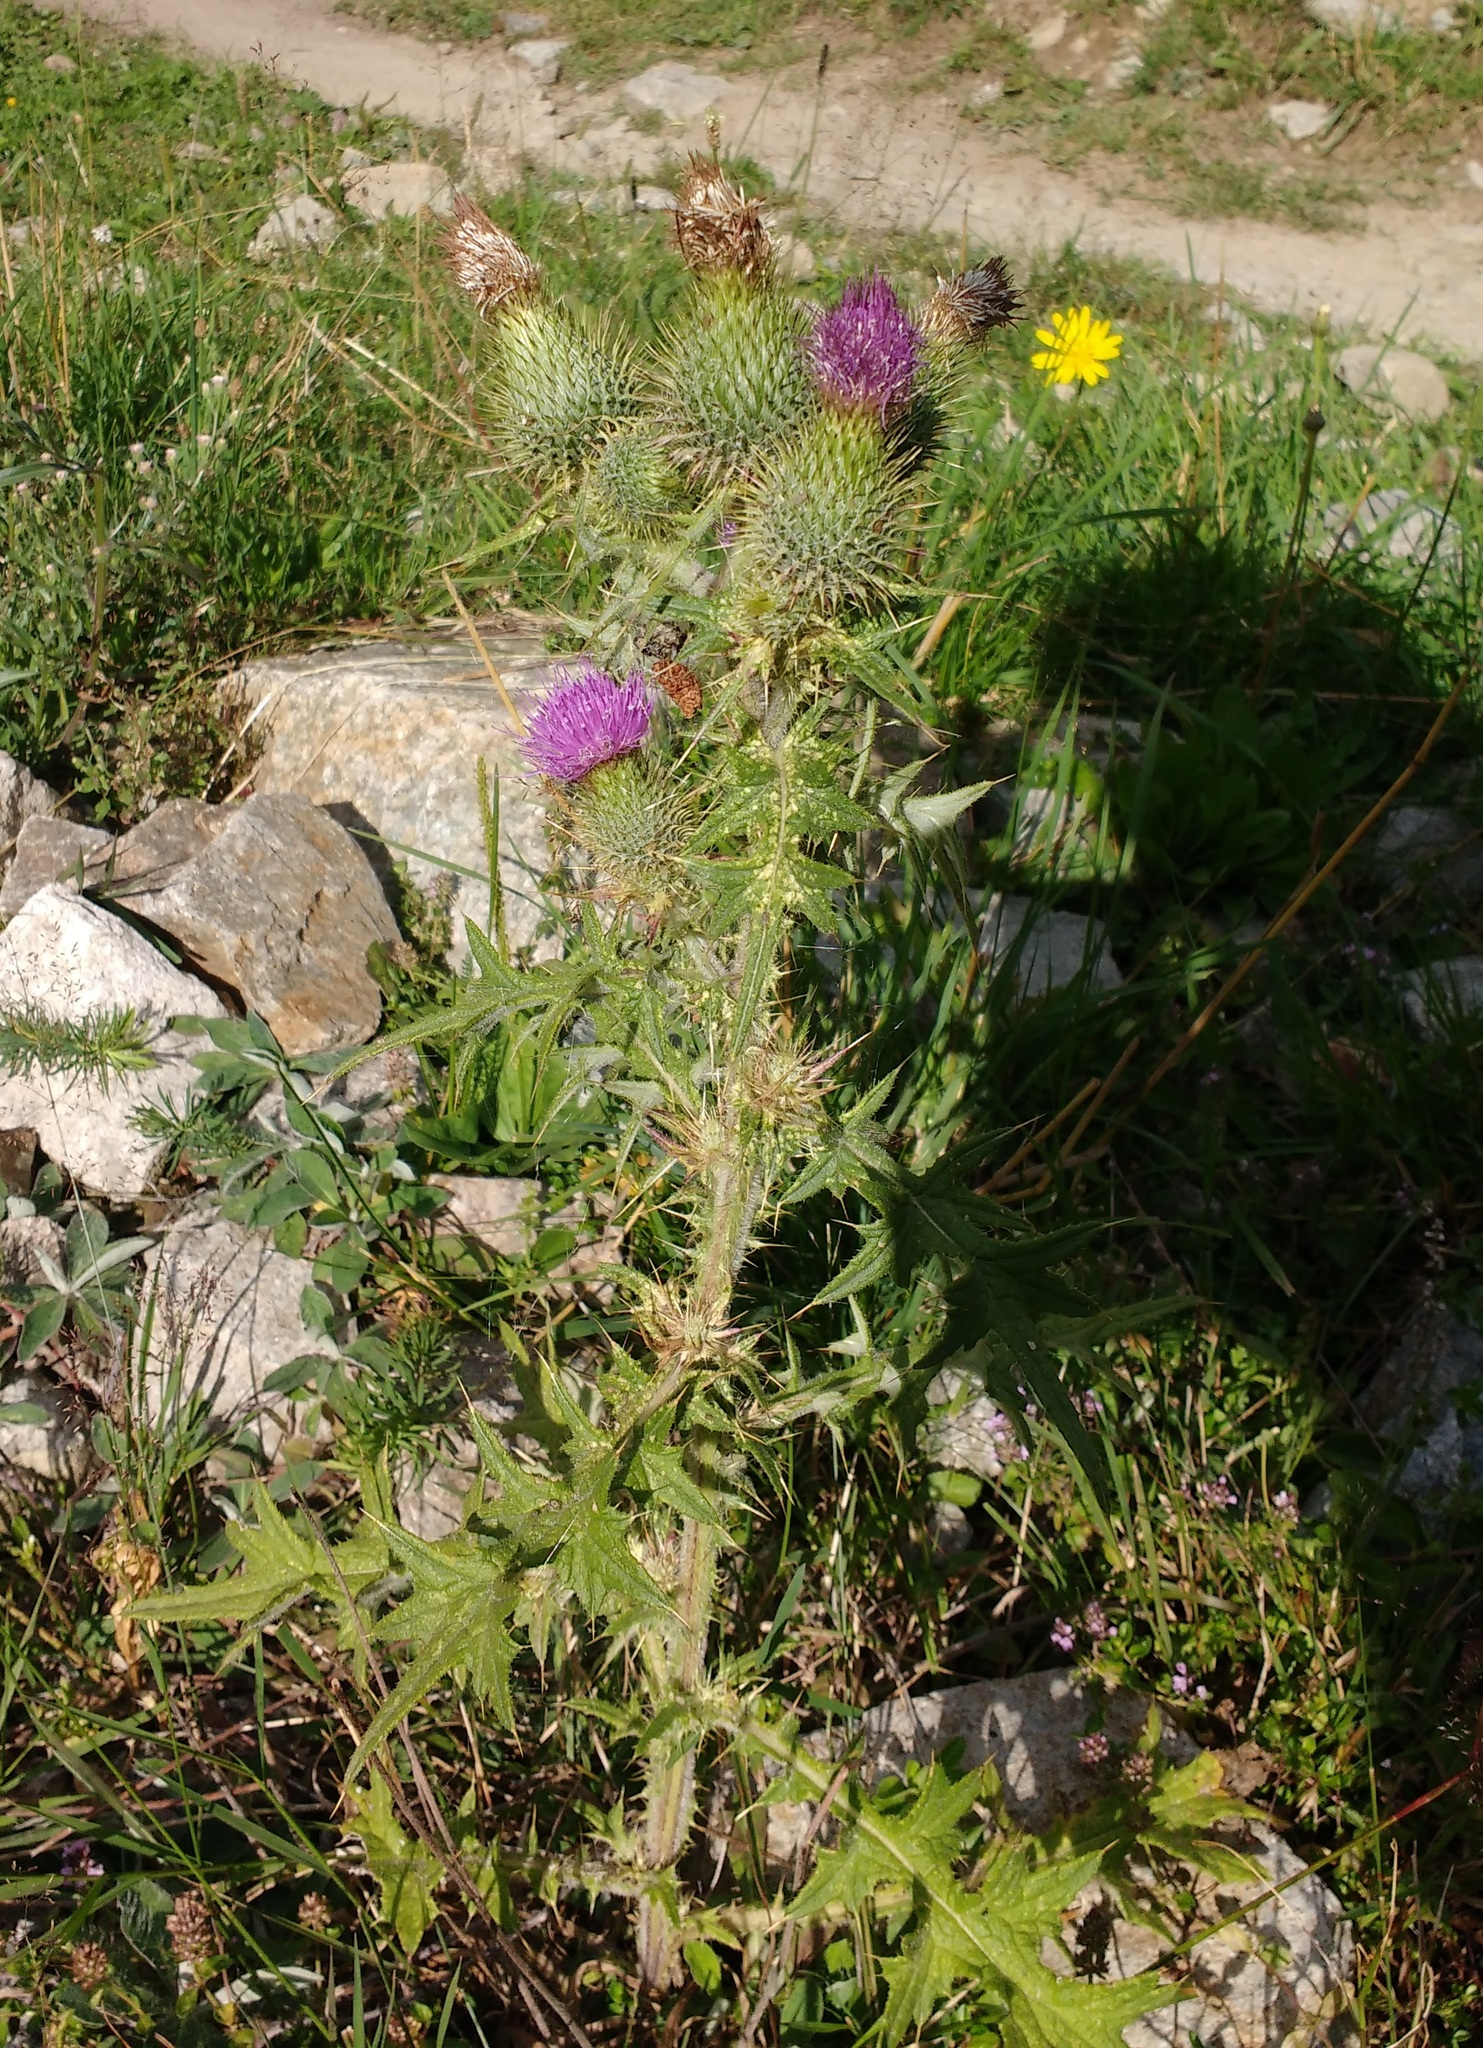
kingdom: Plantae
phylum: Tracheophyta
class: Magnoliopsida
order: Asterales
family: Asteraceae
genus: Cirsium
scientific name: Cirsium vulgare
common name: Bull thistle
